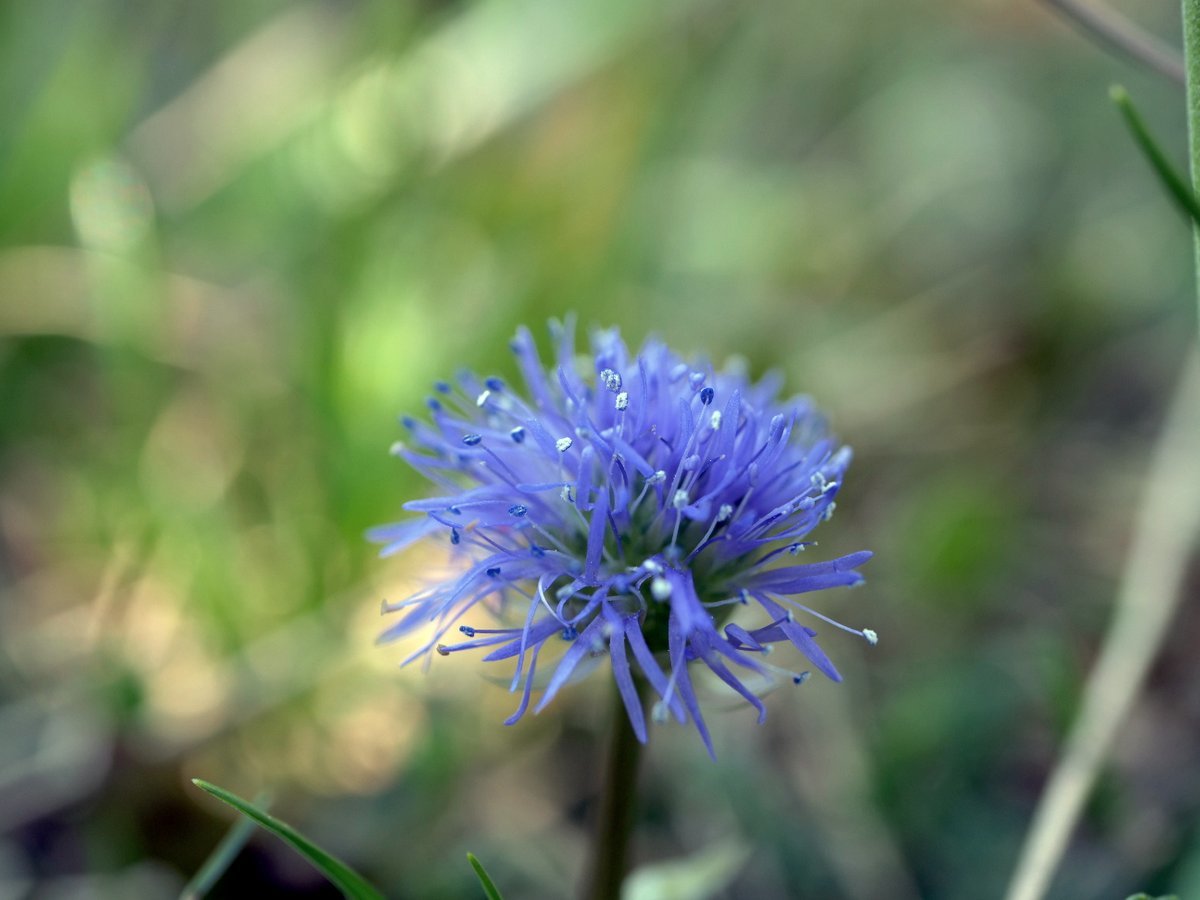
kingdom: Plantae
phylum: Tracheophyta
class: Magnoliopsida
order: Lamiales
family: Plantaginaceae
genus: Globularia
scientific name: Globularia nudicaulis
